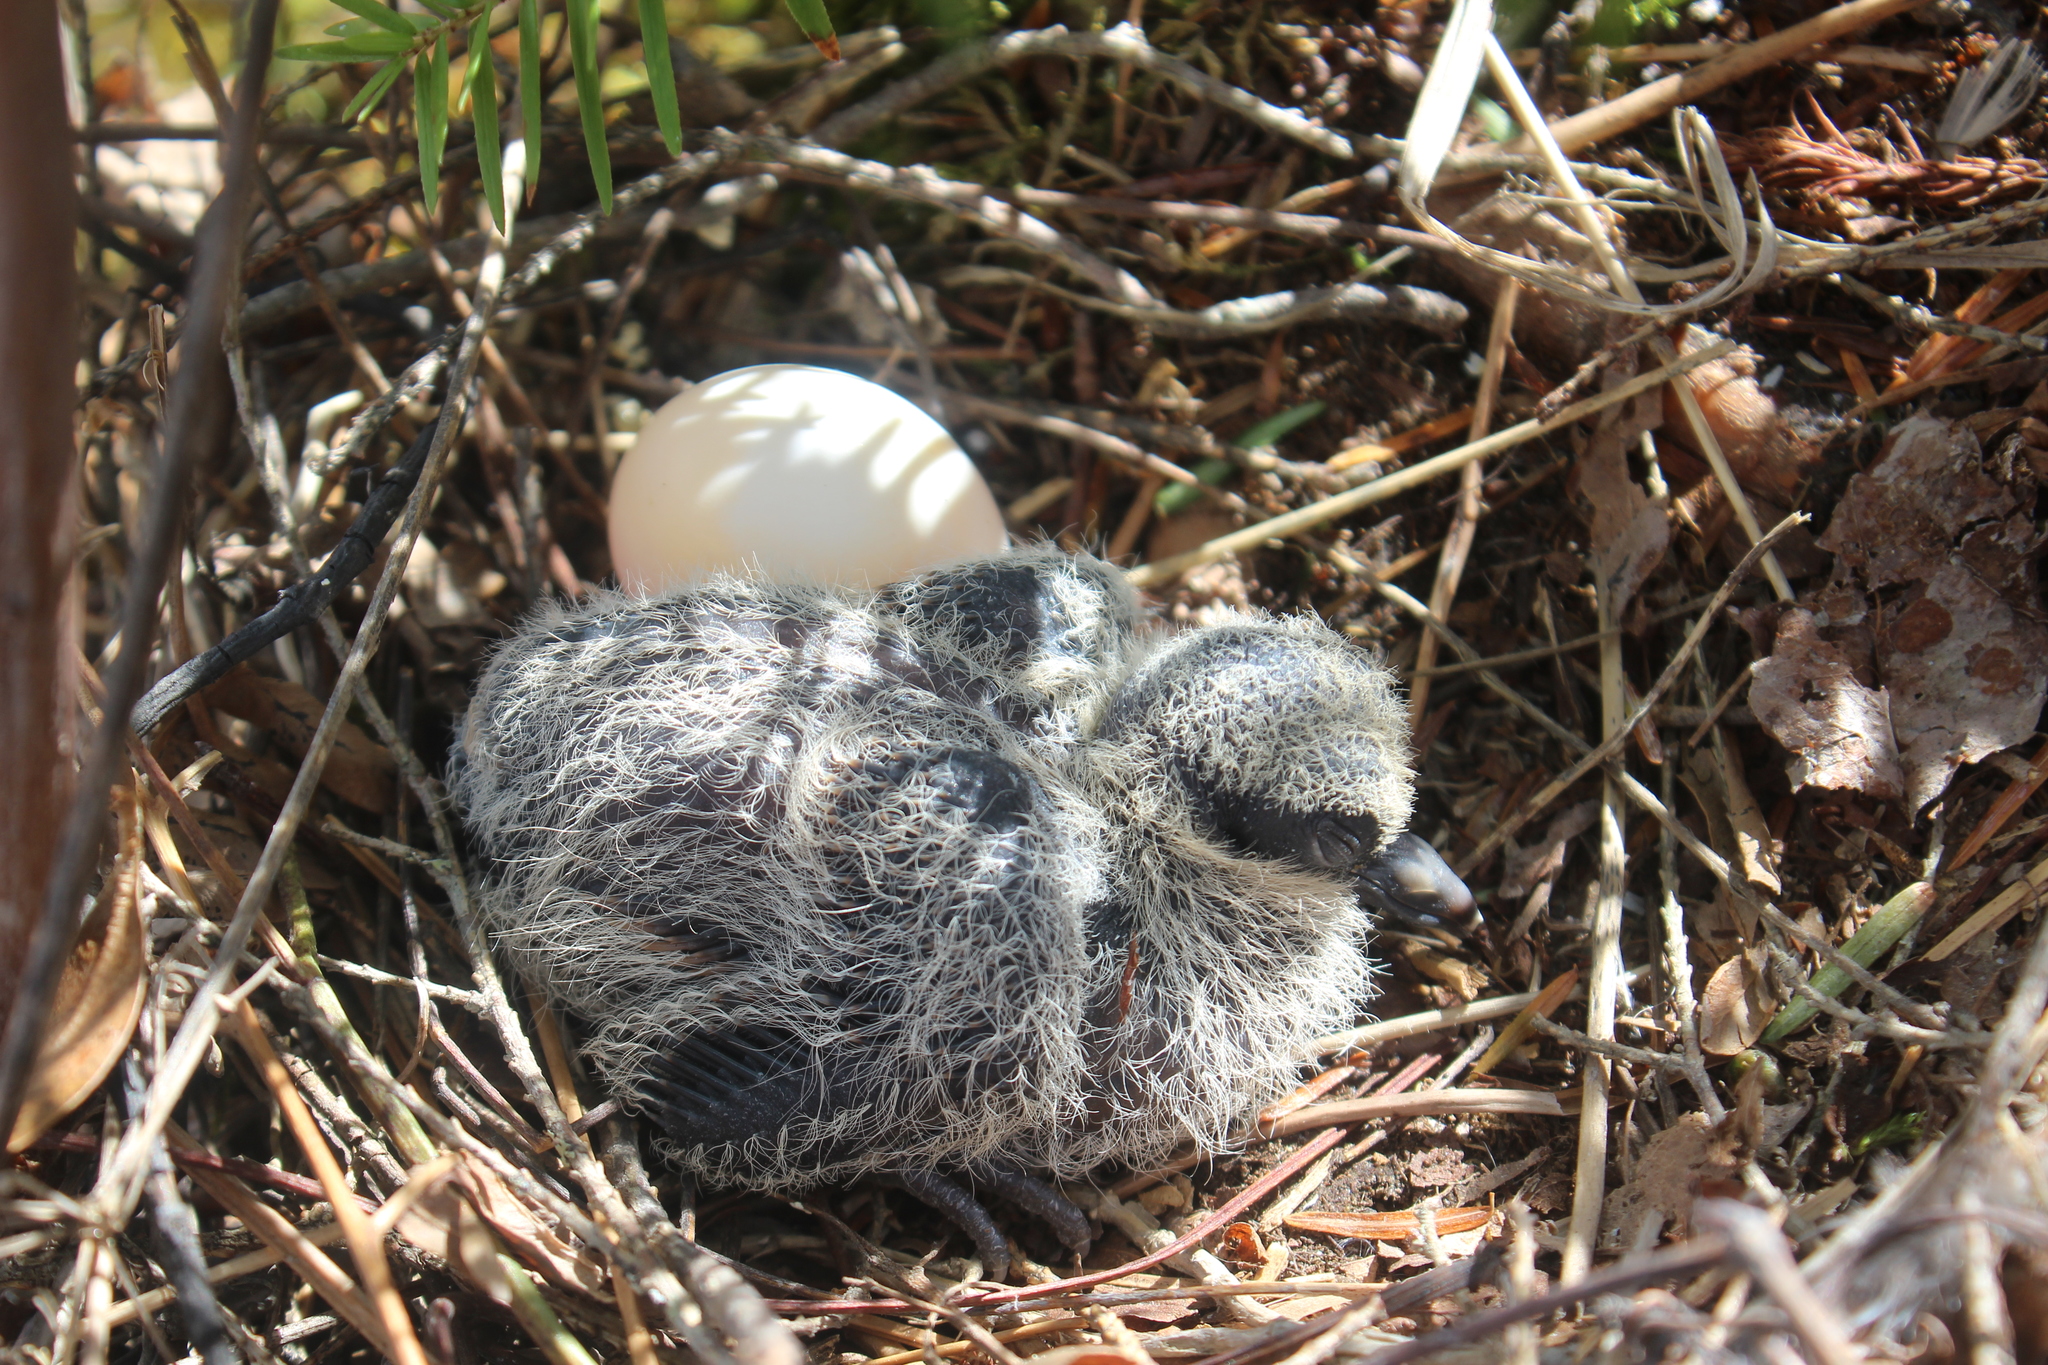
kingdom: Animalia
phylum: Chordata
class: Aves
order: Columbiformes
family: Columbidae
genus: Zenaida
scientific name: Zenaida macroura
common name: Mourning dove
